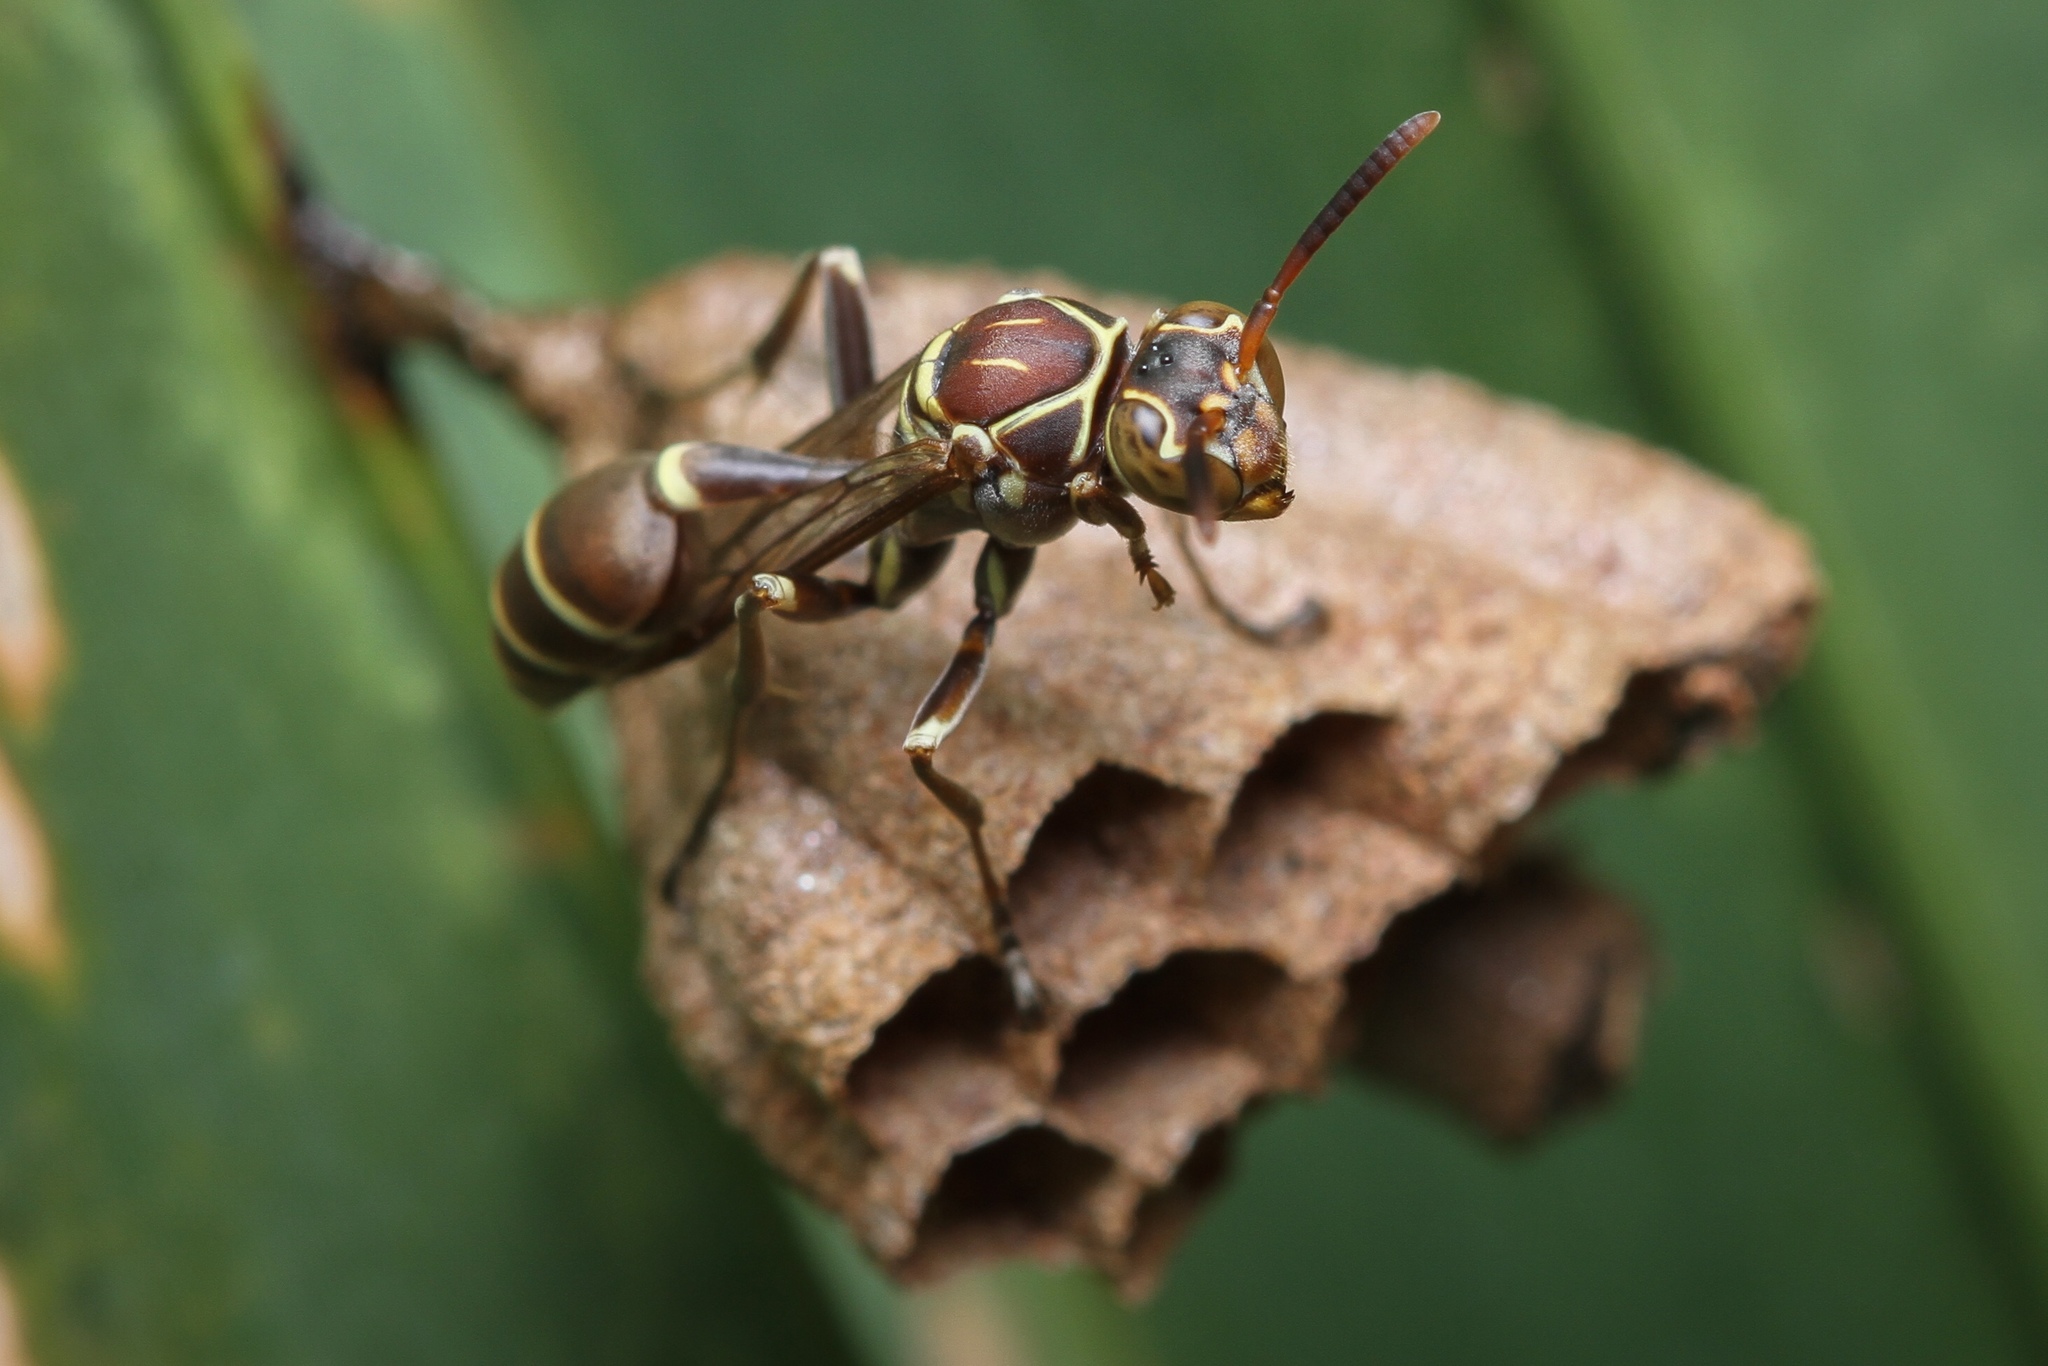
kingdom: Animalia
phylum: Arthropoda
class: Insecta
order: Hymenoptera
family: Vespidae
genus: Mischocyttarus
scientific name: Mischocyttarus mexicanus
